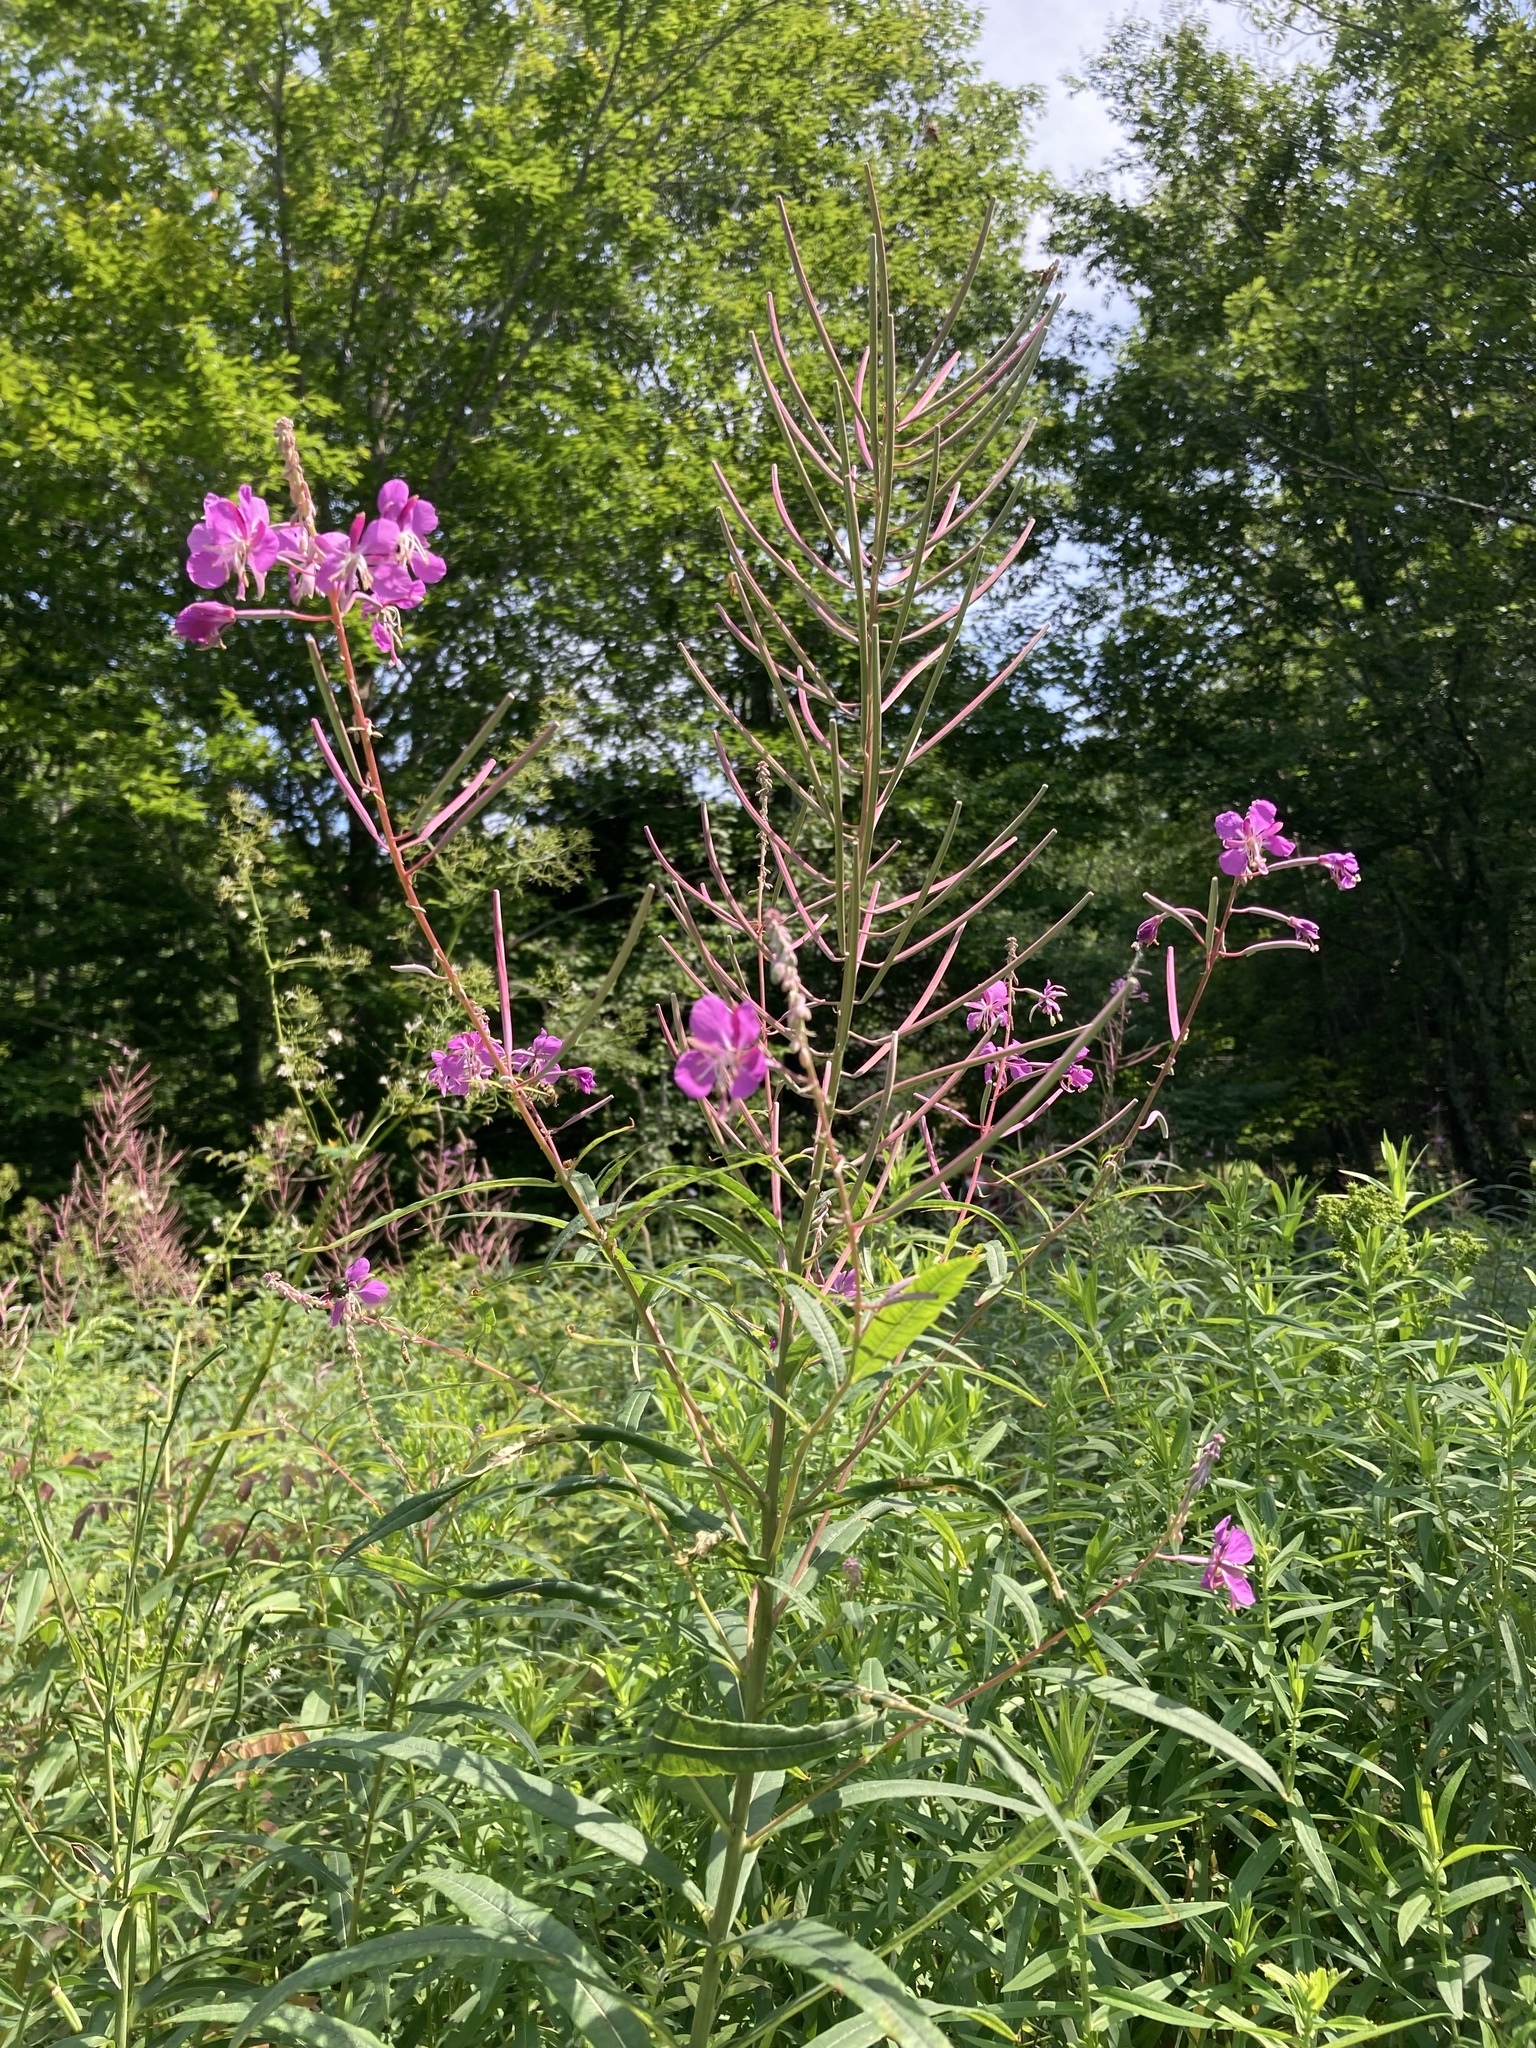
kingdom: Plantae
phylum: Tracheophyta
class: Magnoliopsida
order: Myrtales
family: Onagraceae
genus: Chamaenerion
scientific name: Chamaenerion angustifolium
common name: Fireweed
